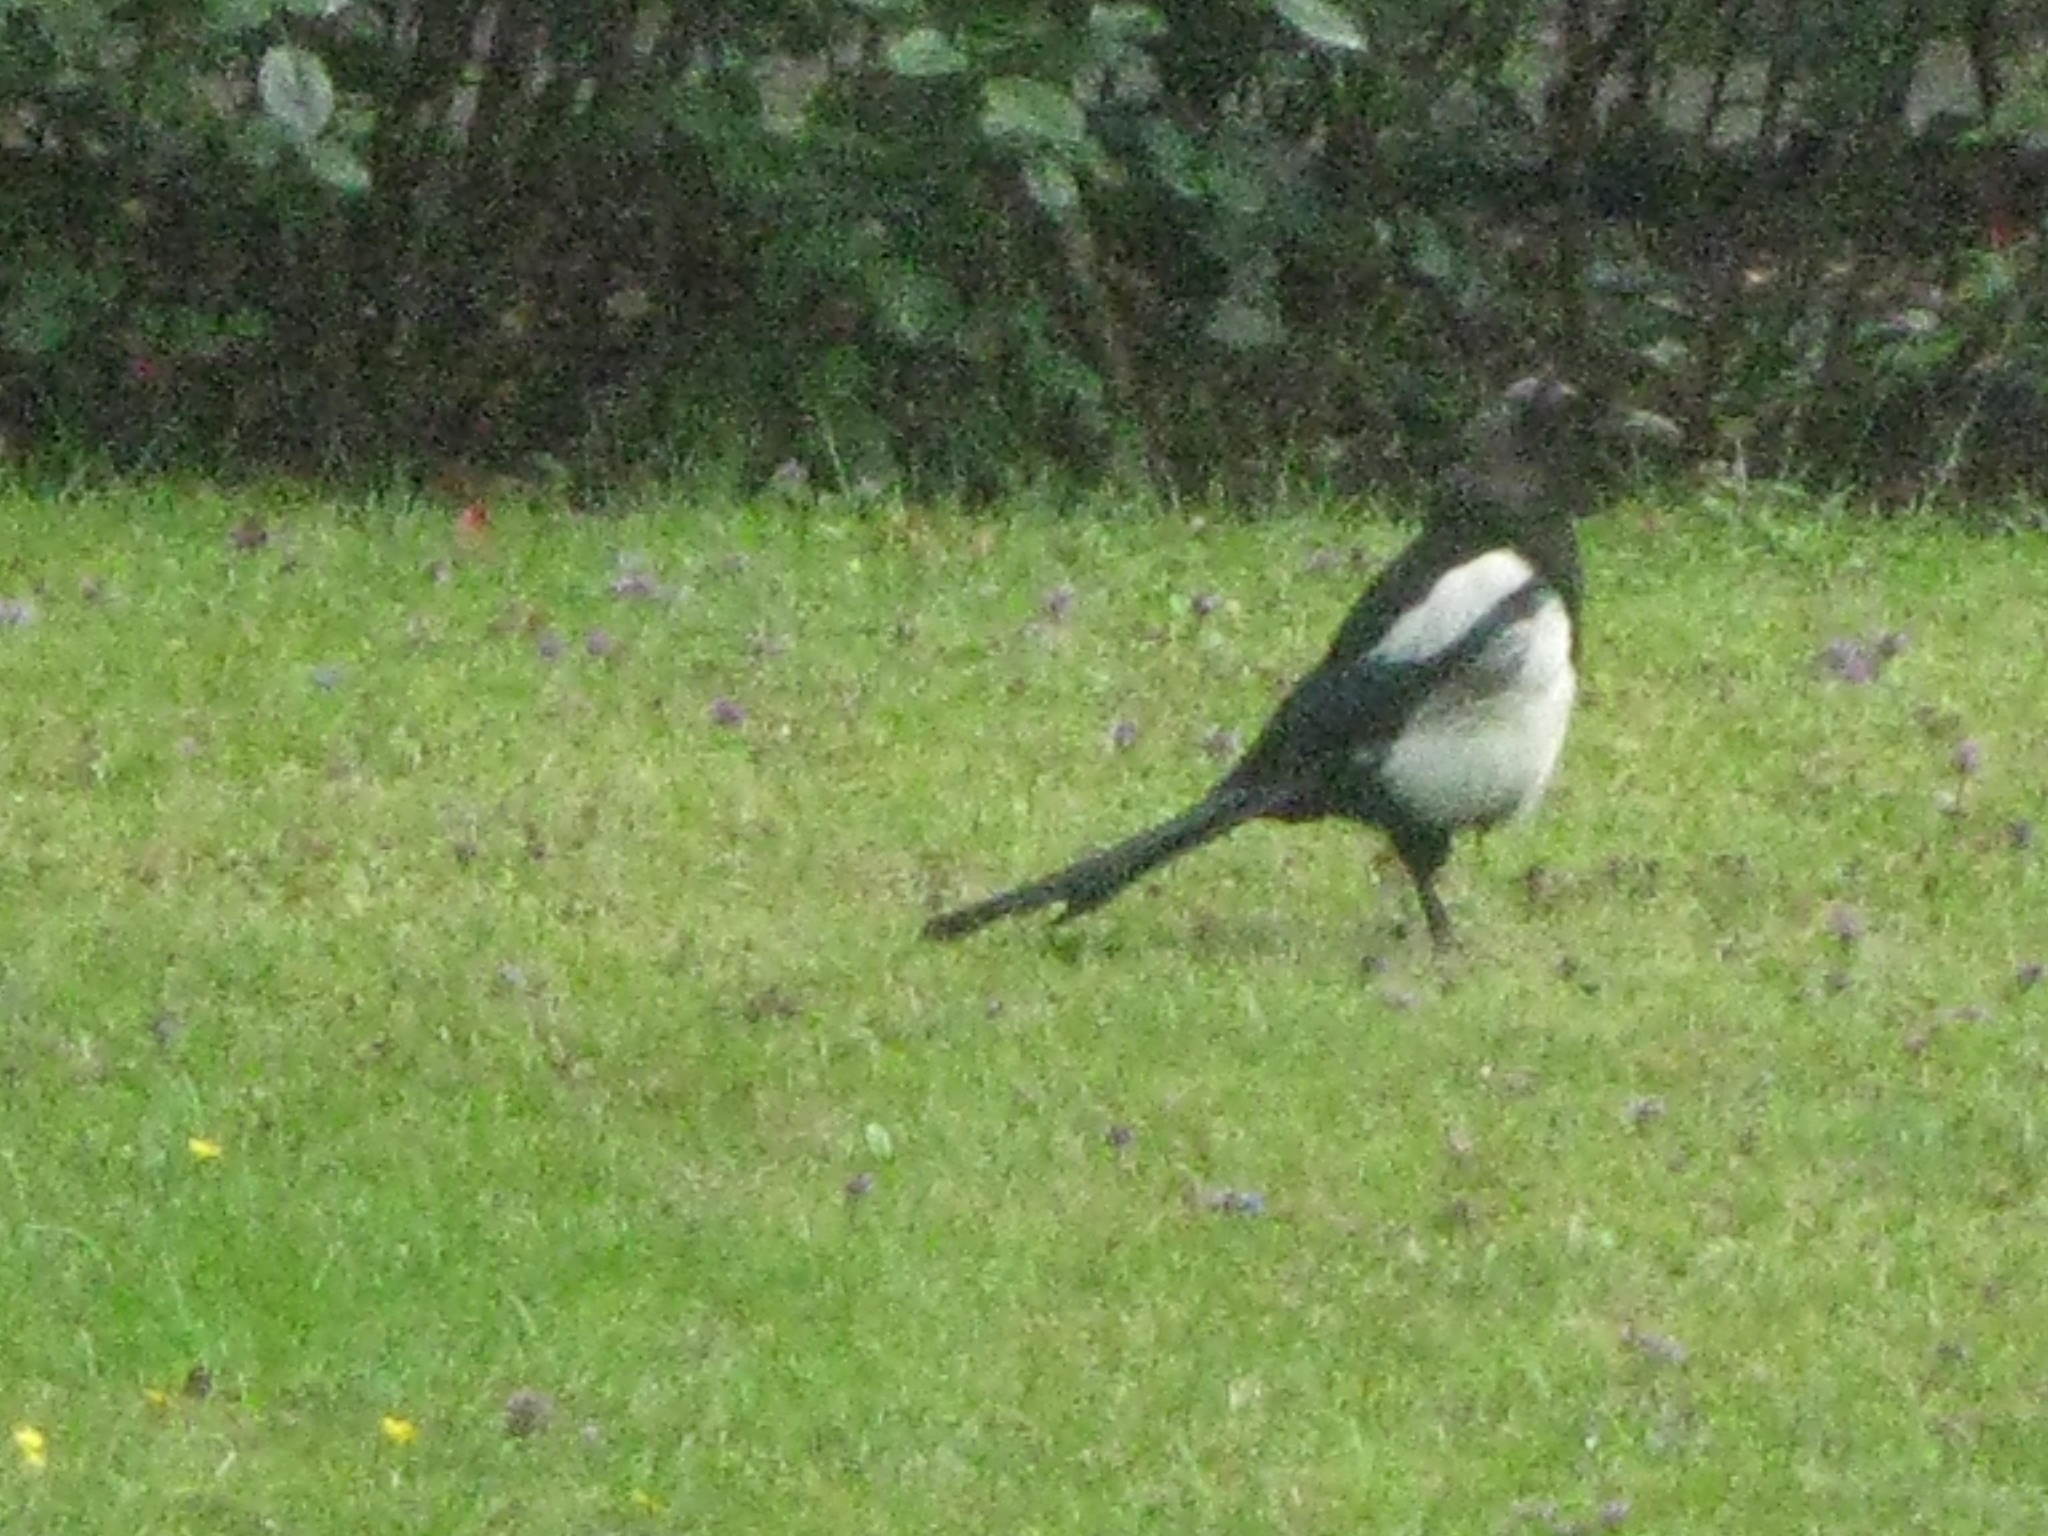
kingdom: Animalia
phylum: Chordata
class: Aves
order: Passeriformes
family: Corvidae
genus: Pica
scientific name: Pica pica
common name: Eurasian magpie
